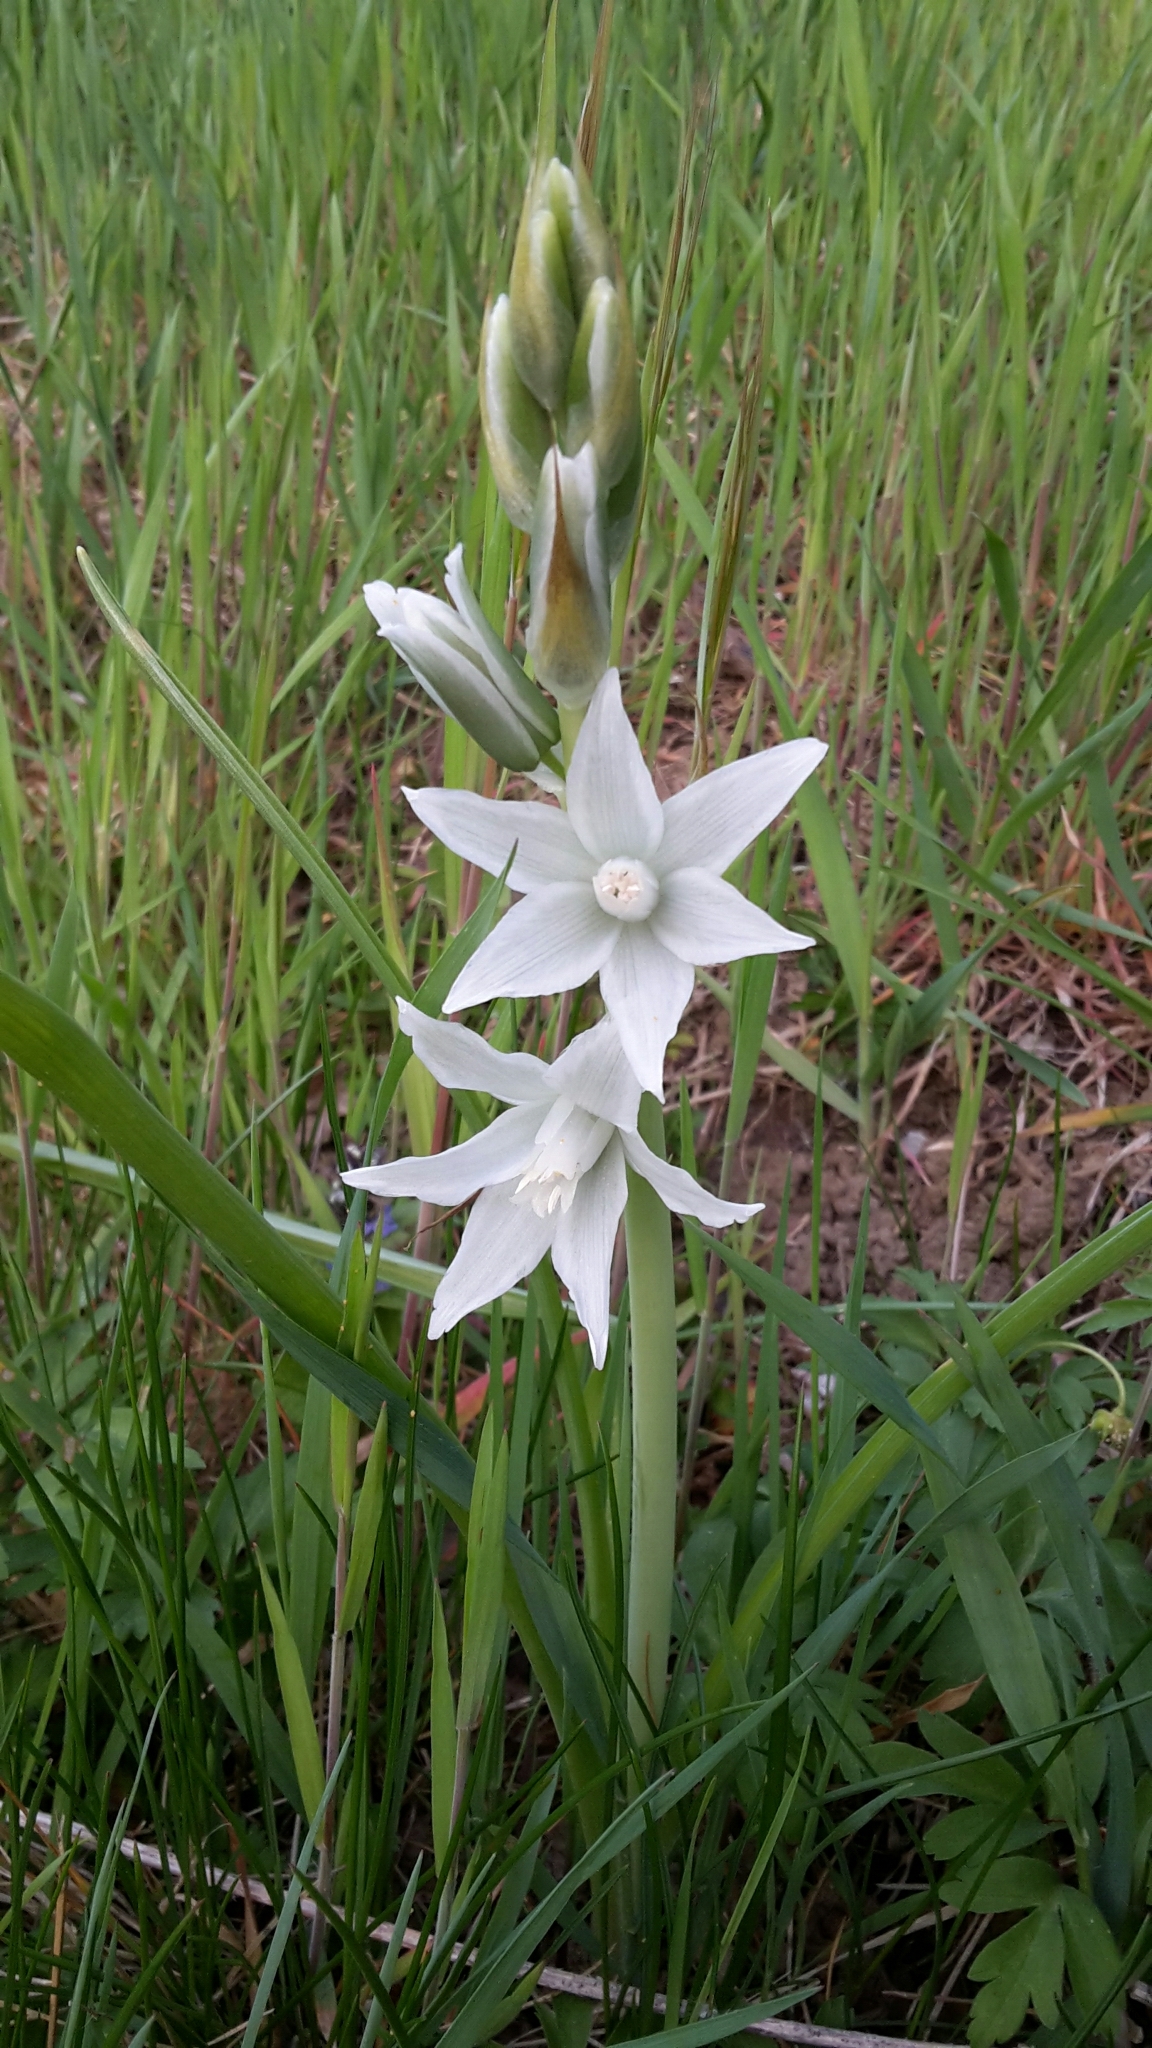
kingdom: Plantae
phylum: Tracheophyta
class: Liliopsida
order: Asparagales
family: Asparagaceae
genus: Ornithogalum
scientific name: Ornithogalum nutans
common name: Drooping star-of-bethlehem
